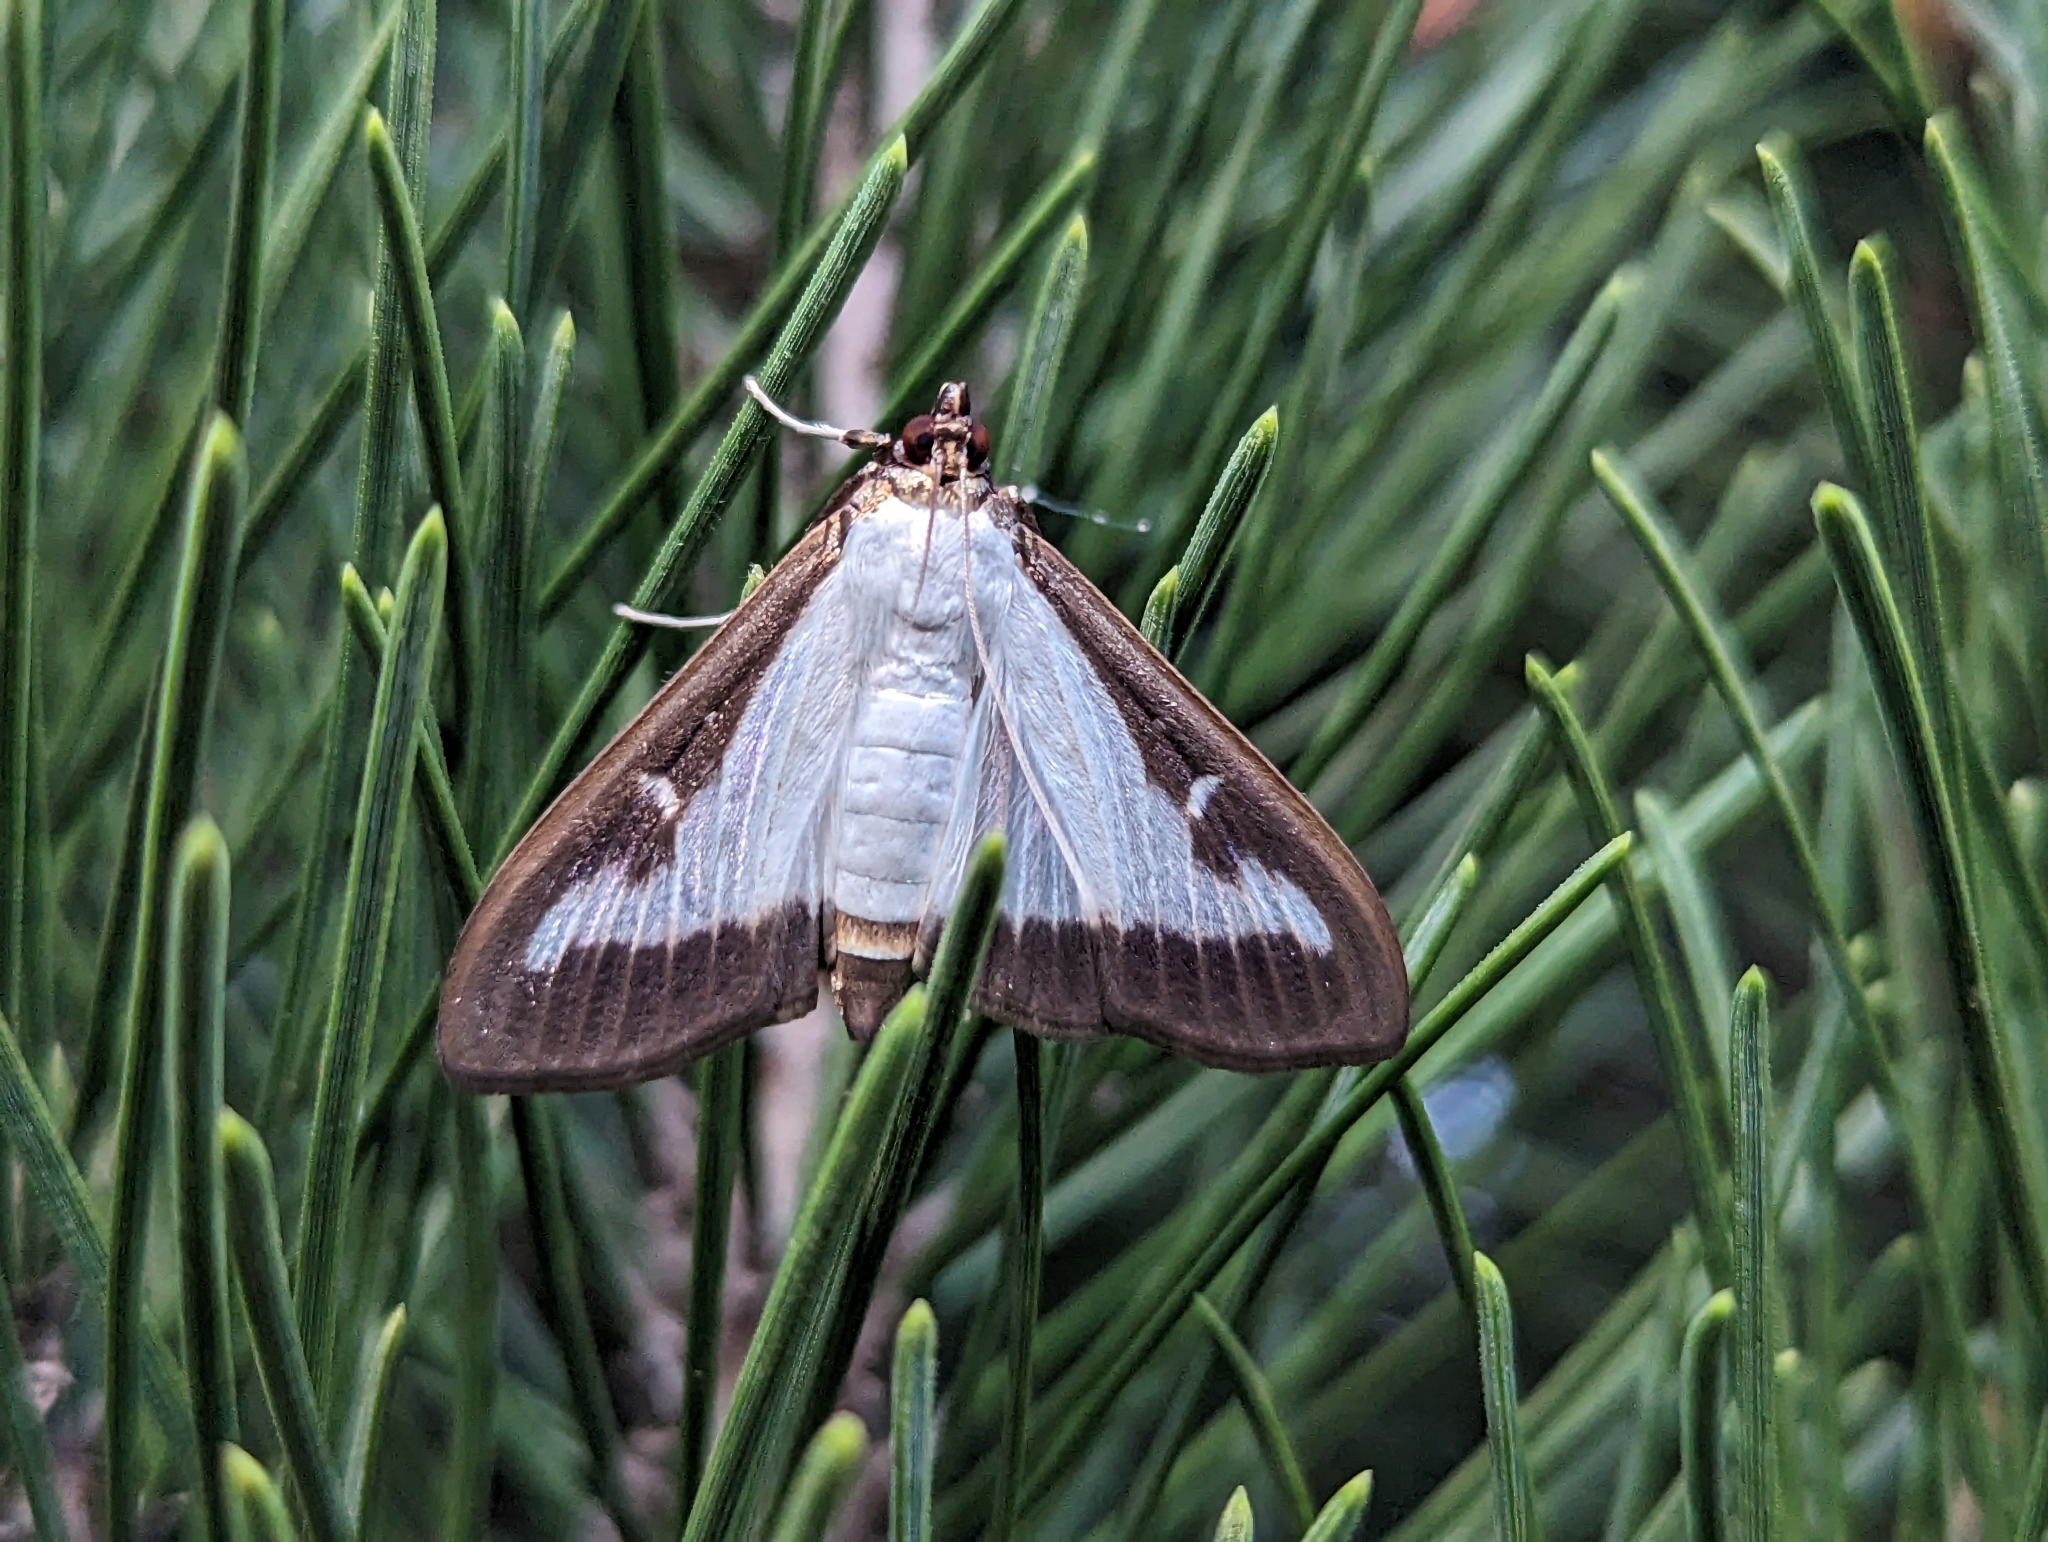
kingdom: Animalia
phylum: Arthropoda
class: Insecta
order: Lepidoptera
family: Crambidae
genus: Cydalima
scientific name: Cydalima perspectalis
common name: Box tree moth
